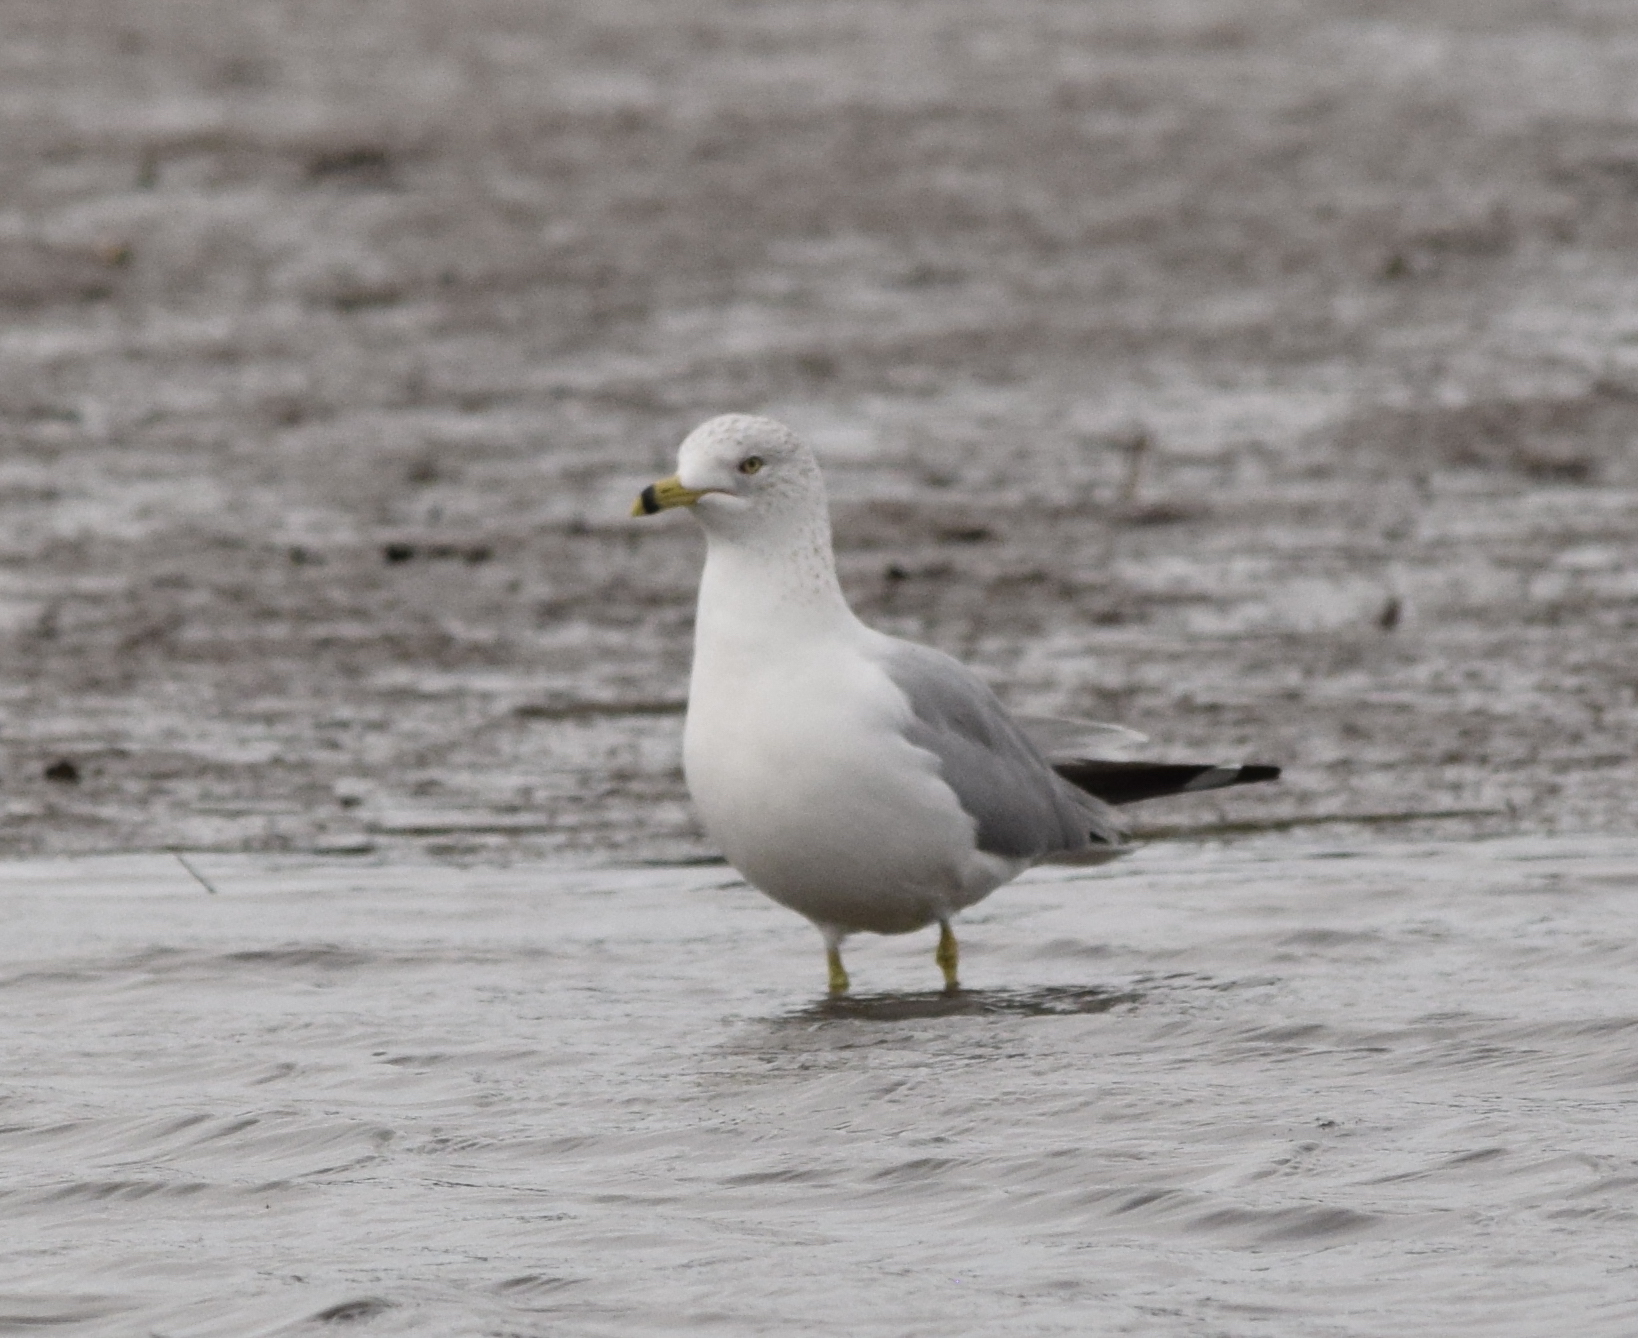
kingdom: Animalia
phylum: Chordata
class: Aves
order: Charadriiformes
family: Laridae
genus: Larus
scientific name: Larus delawarensis
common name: Ring-billed gull
